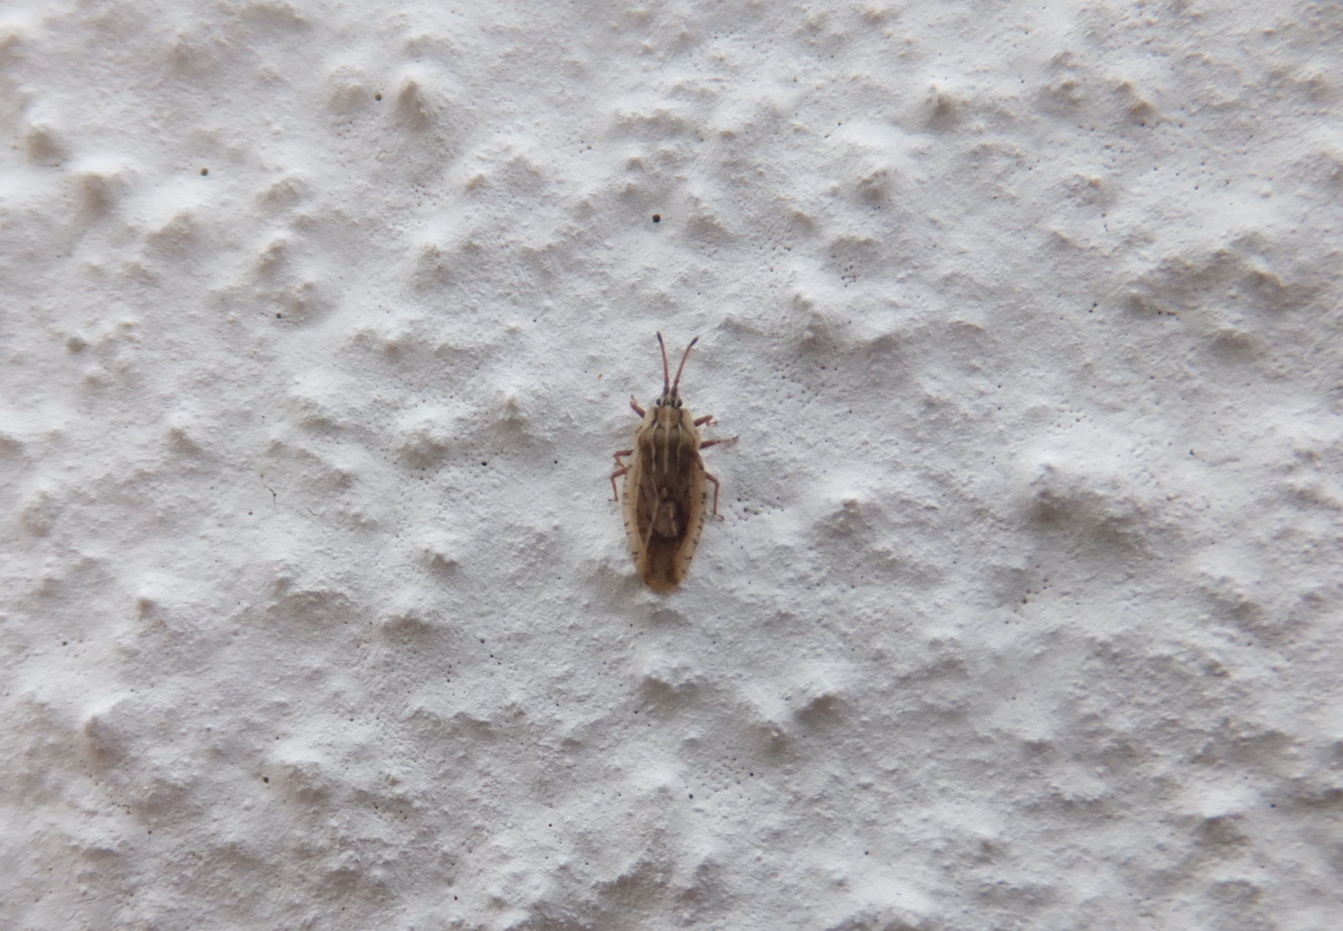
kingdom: Animalia
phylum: Arthropoda
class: Insecta
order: Hemiptera
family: Tingidae
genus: Tingis
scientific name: Tingis auriculata
